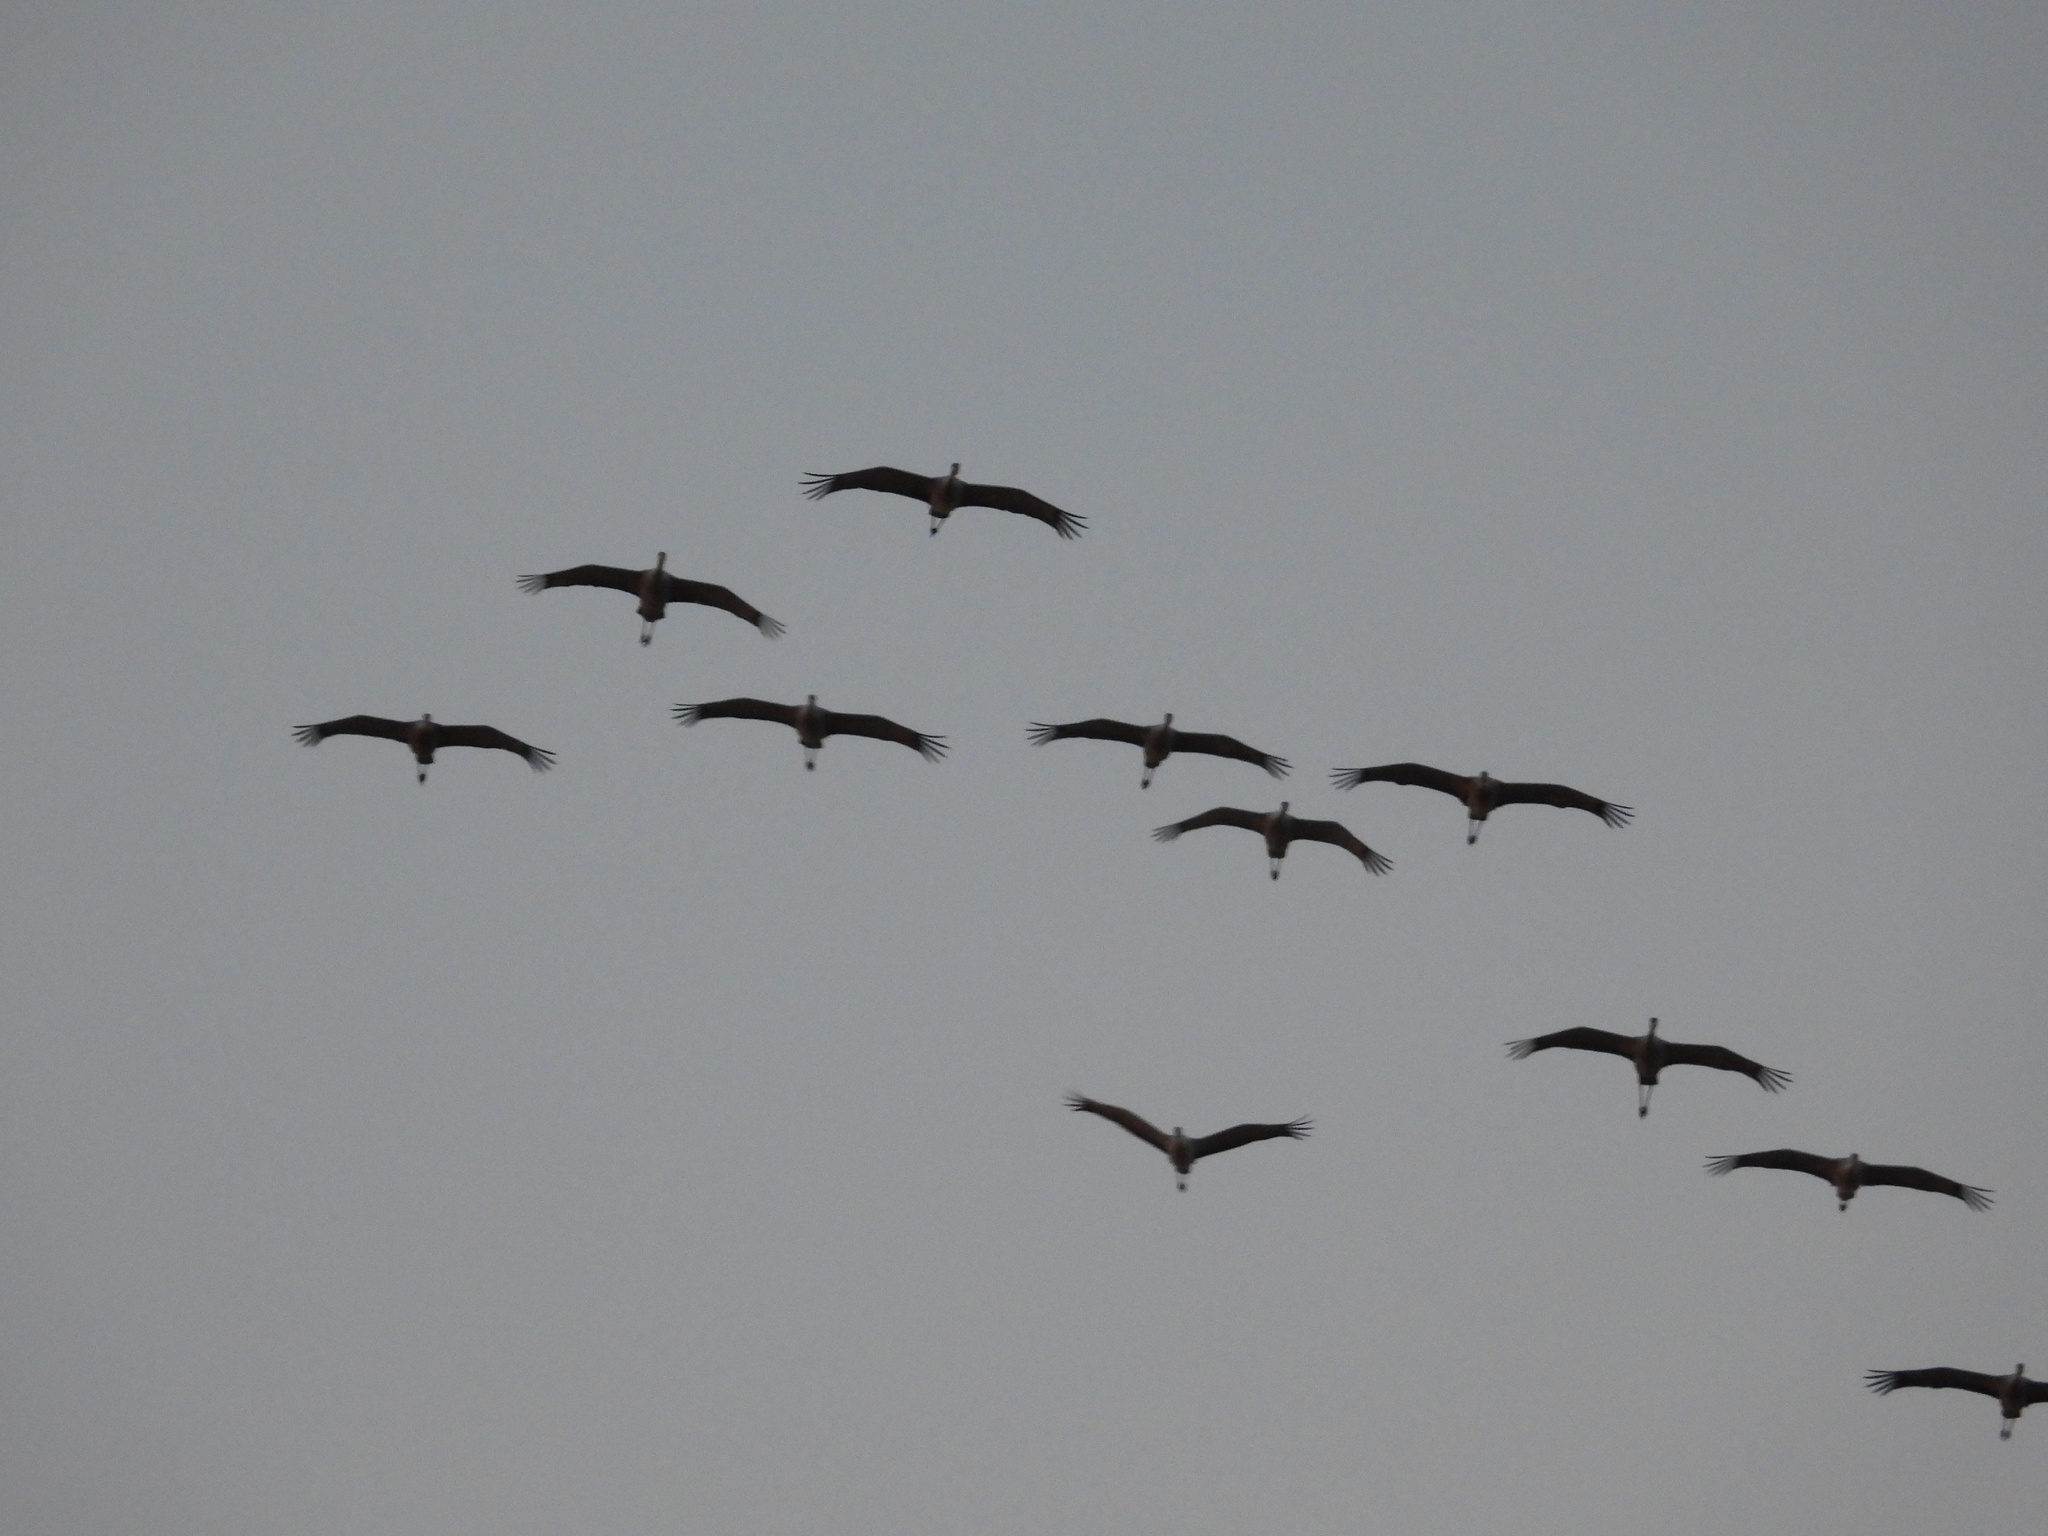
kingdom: Animalia
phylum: Chordata
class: Aves
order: Gruiformes
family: Gruidae
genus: Grus
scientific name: Grus canadensis
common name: Sandhill crane
